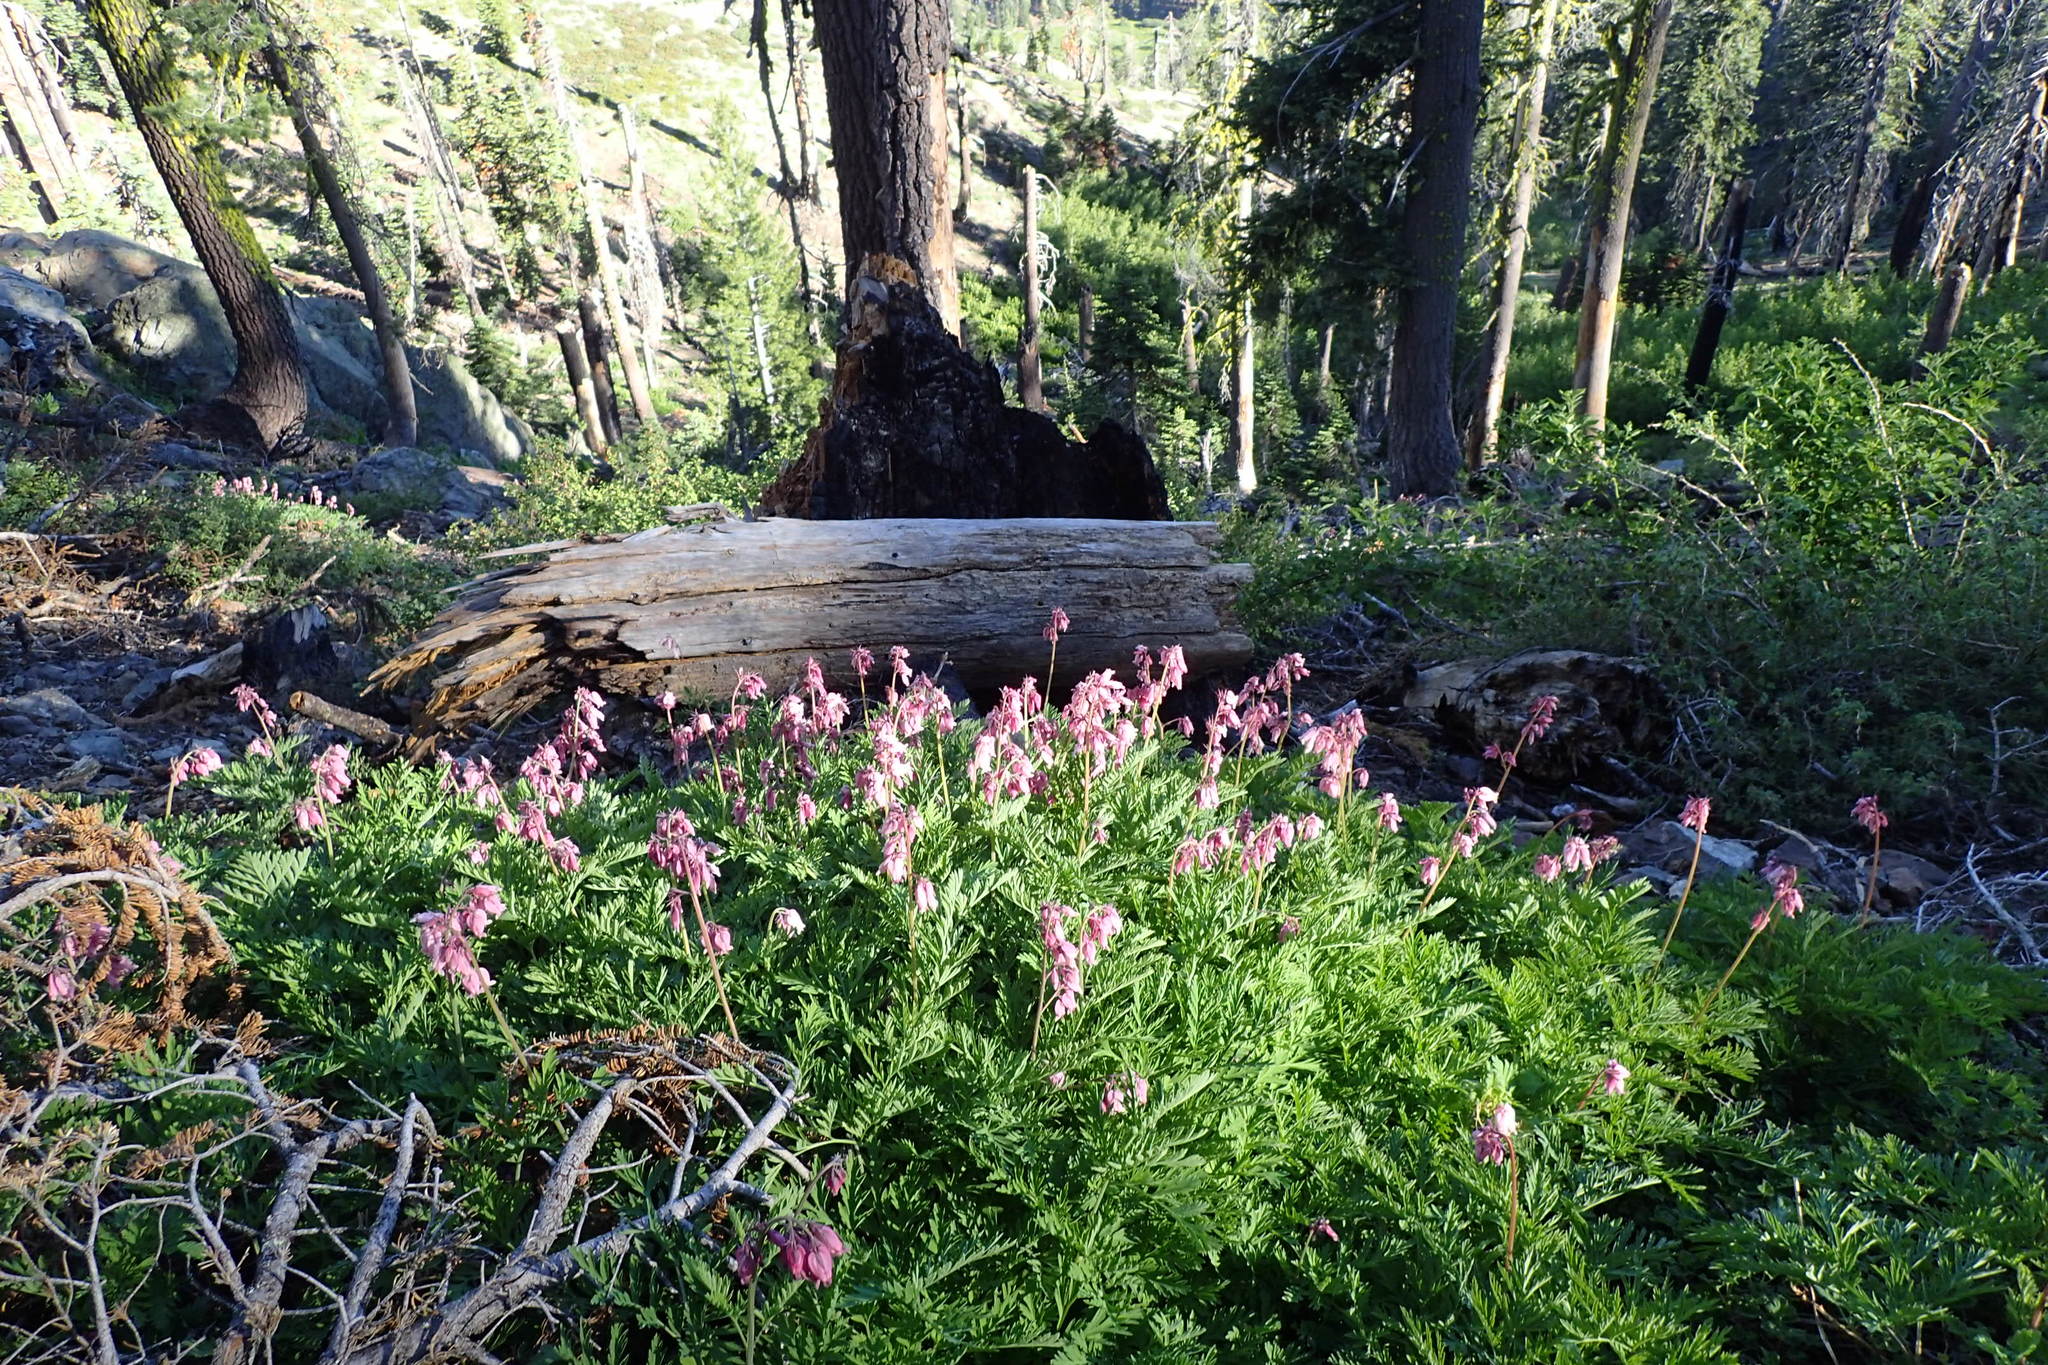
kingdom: Plantae
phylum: Tracheophyta
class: Magnoliopsida
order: Ranunculales
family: Papaveraceae
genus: Dicentra
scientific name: Dicentra formosa
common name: Bleeding-heart
